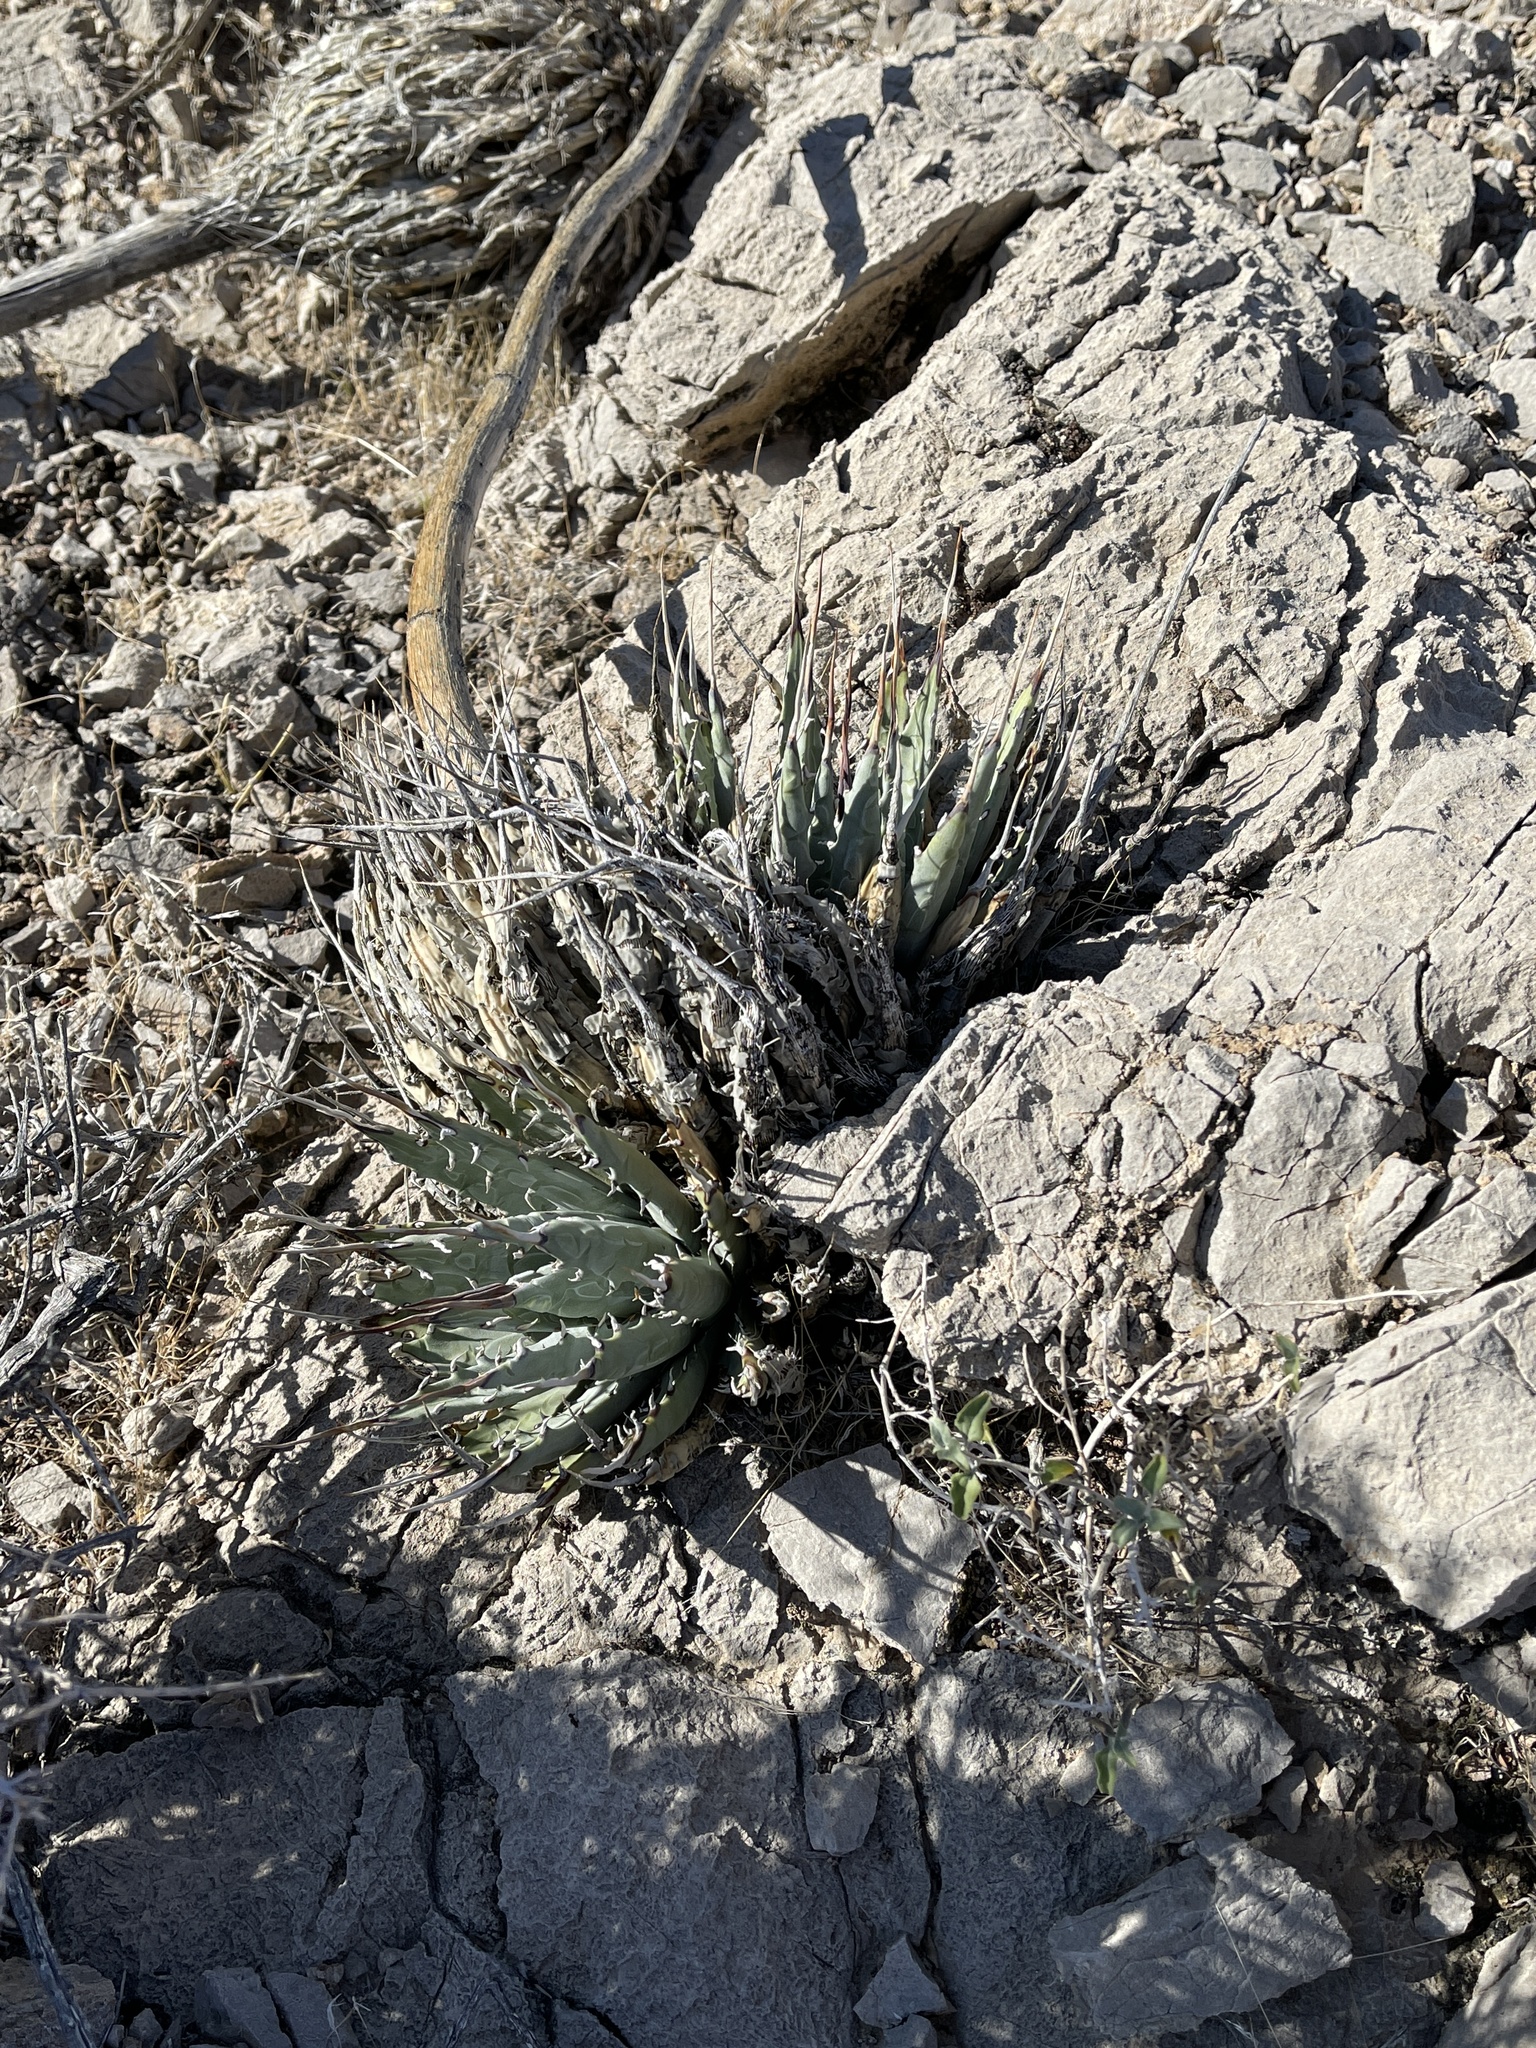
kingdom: Plantae
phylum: Tracheophyta
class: Liliopsida
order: Asparagales
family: Asparagaceae
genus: Agave
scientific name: Agave utahensis
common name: Utah agave
